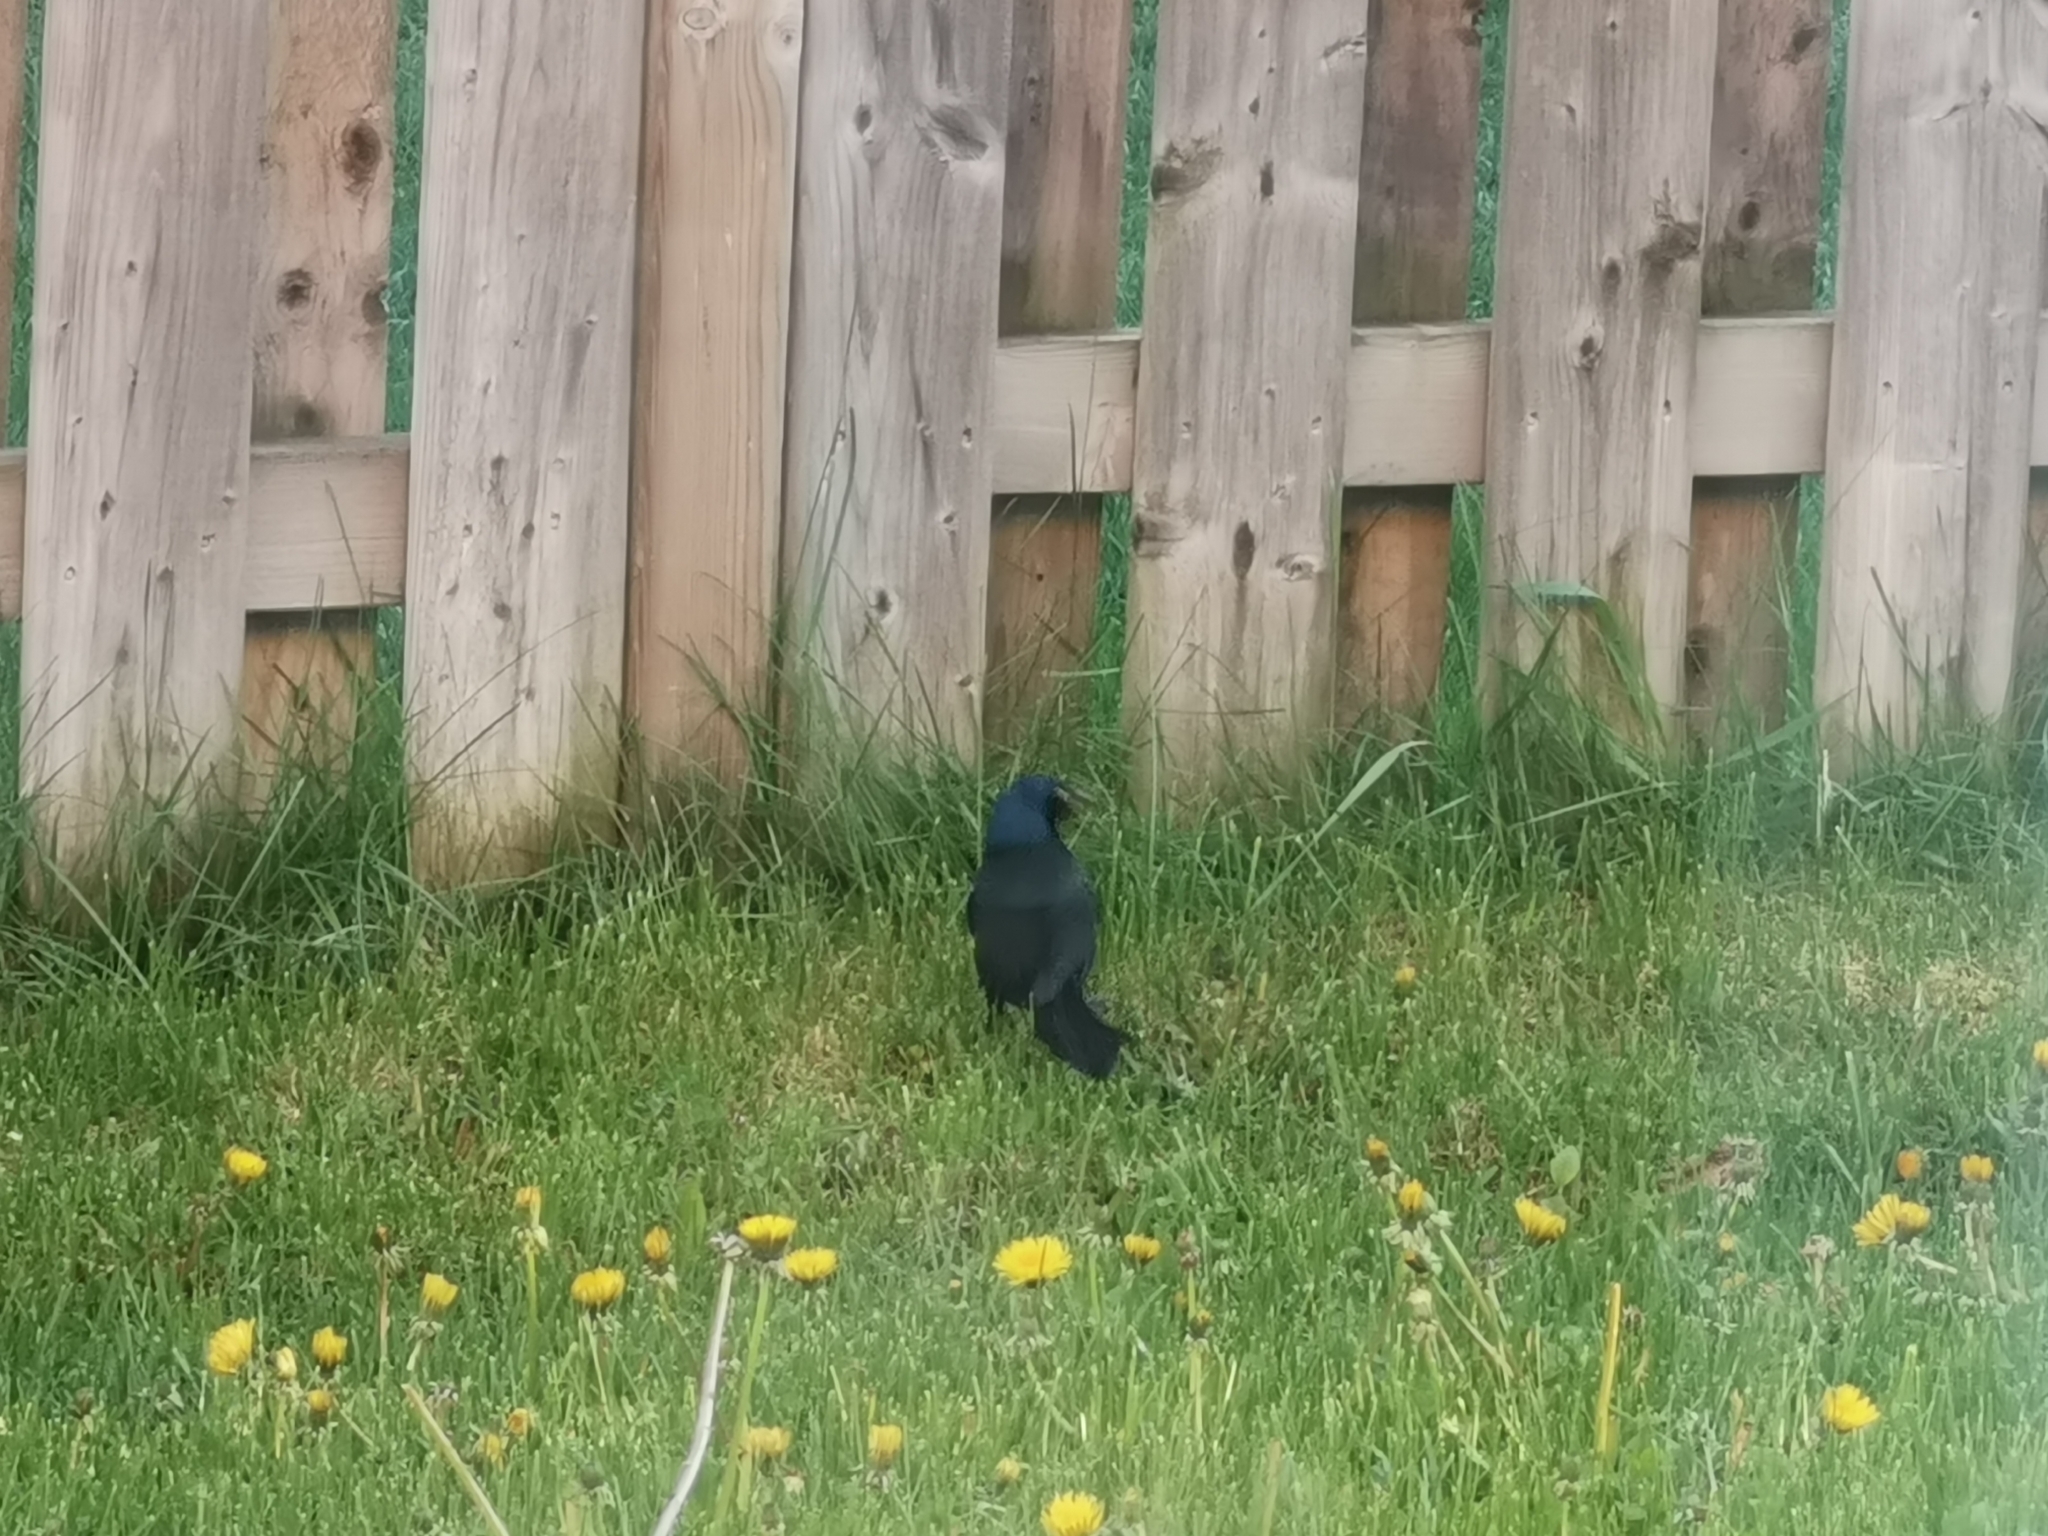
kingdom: Animalia
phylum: Chordata
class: Aves
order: Passeriformes
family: Icteridae
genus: Quiscalus
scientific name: Quiscalus quiscula
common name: Common grackle
